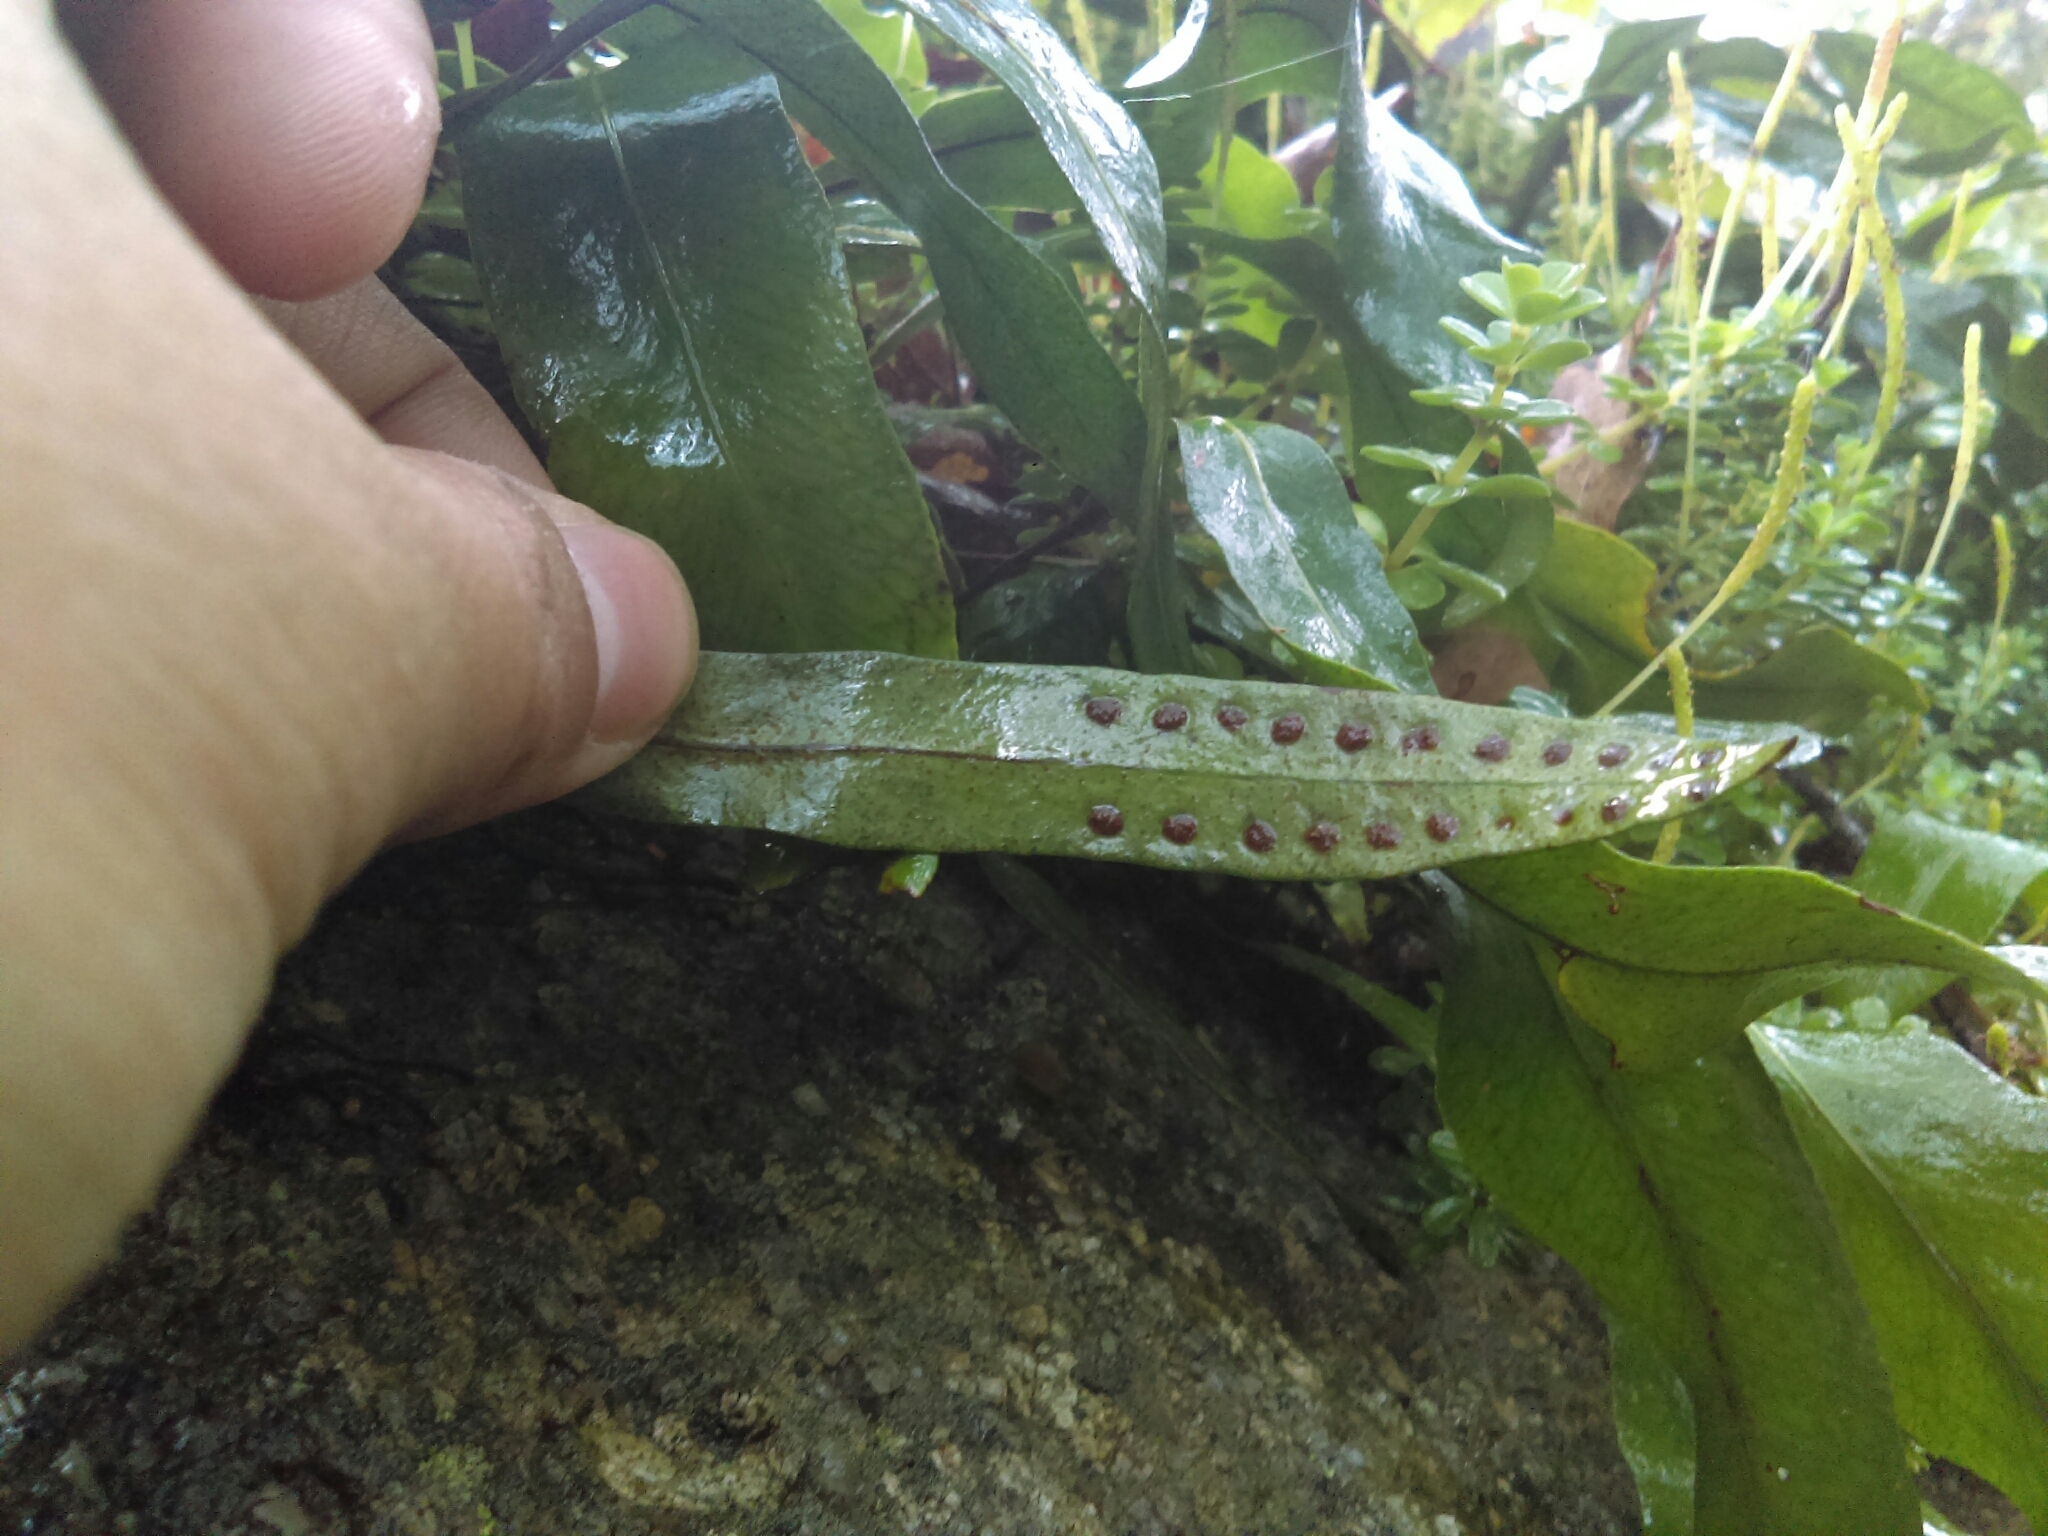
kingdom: Plantae
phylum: Tracheophyta
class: Polypodiopsida
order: Polypodiales
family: Polypodiaceae
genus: Pleopeltis
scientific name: Pleopeltis crassinervata
